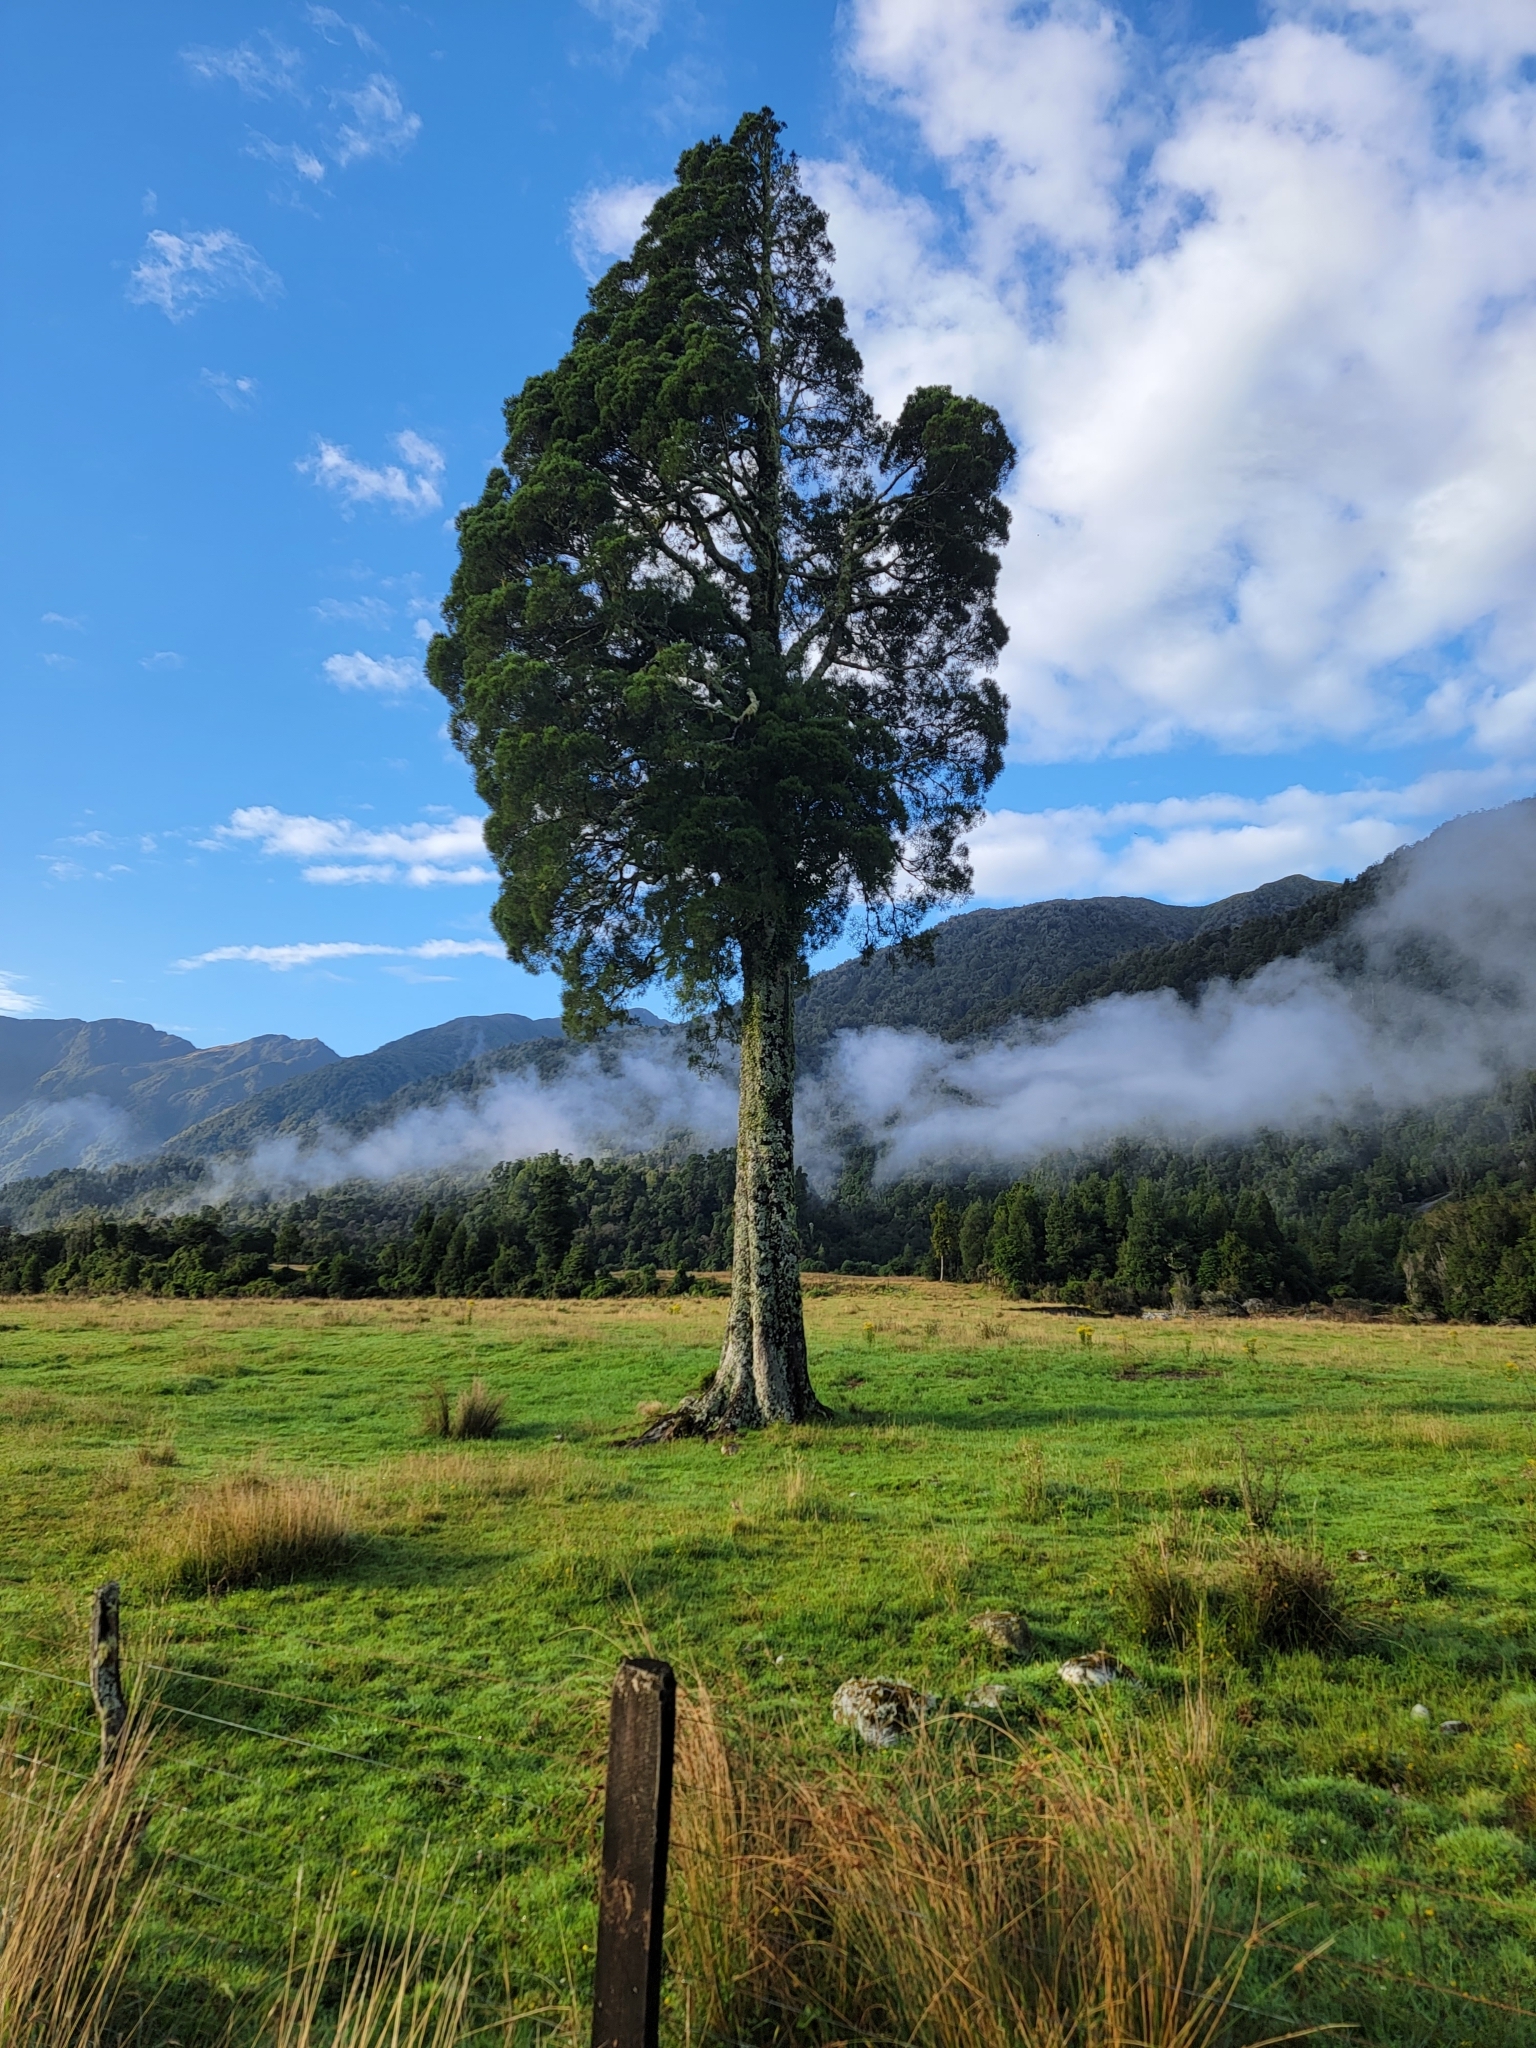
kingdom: Plantae
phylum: Tracheophyta
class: Pinopsida
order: Pinales
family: Podocarpaceae
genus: Dacrycarpus
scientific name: Dacrycarpus dacrydioides
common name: White pine
